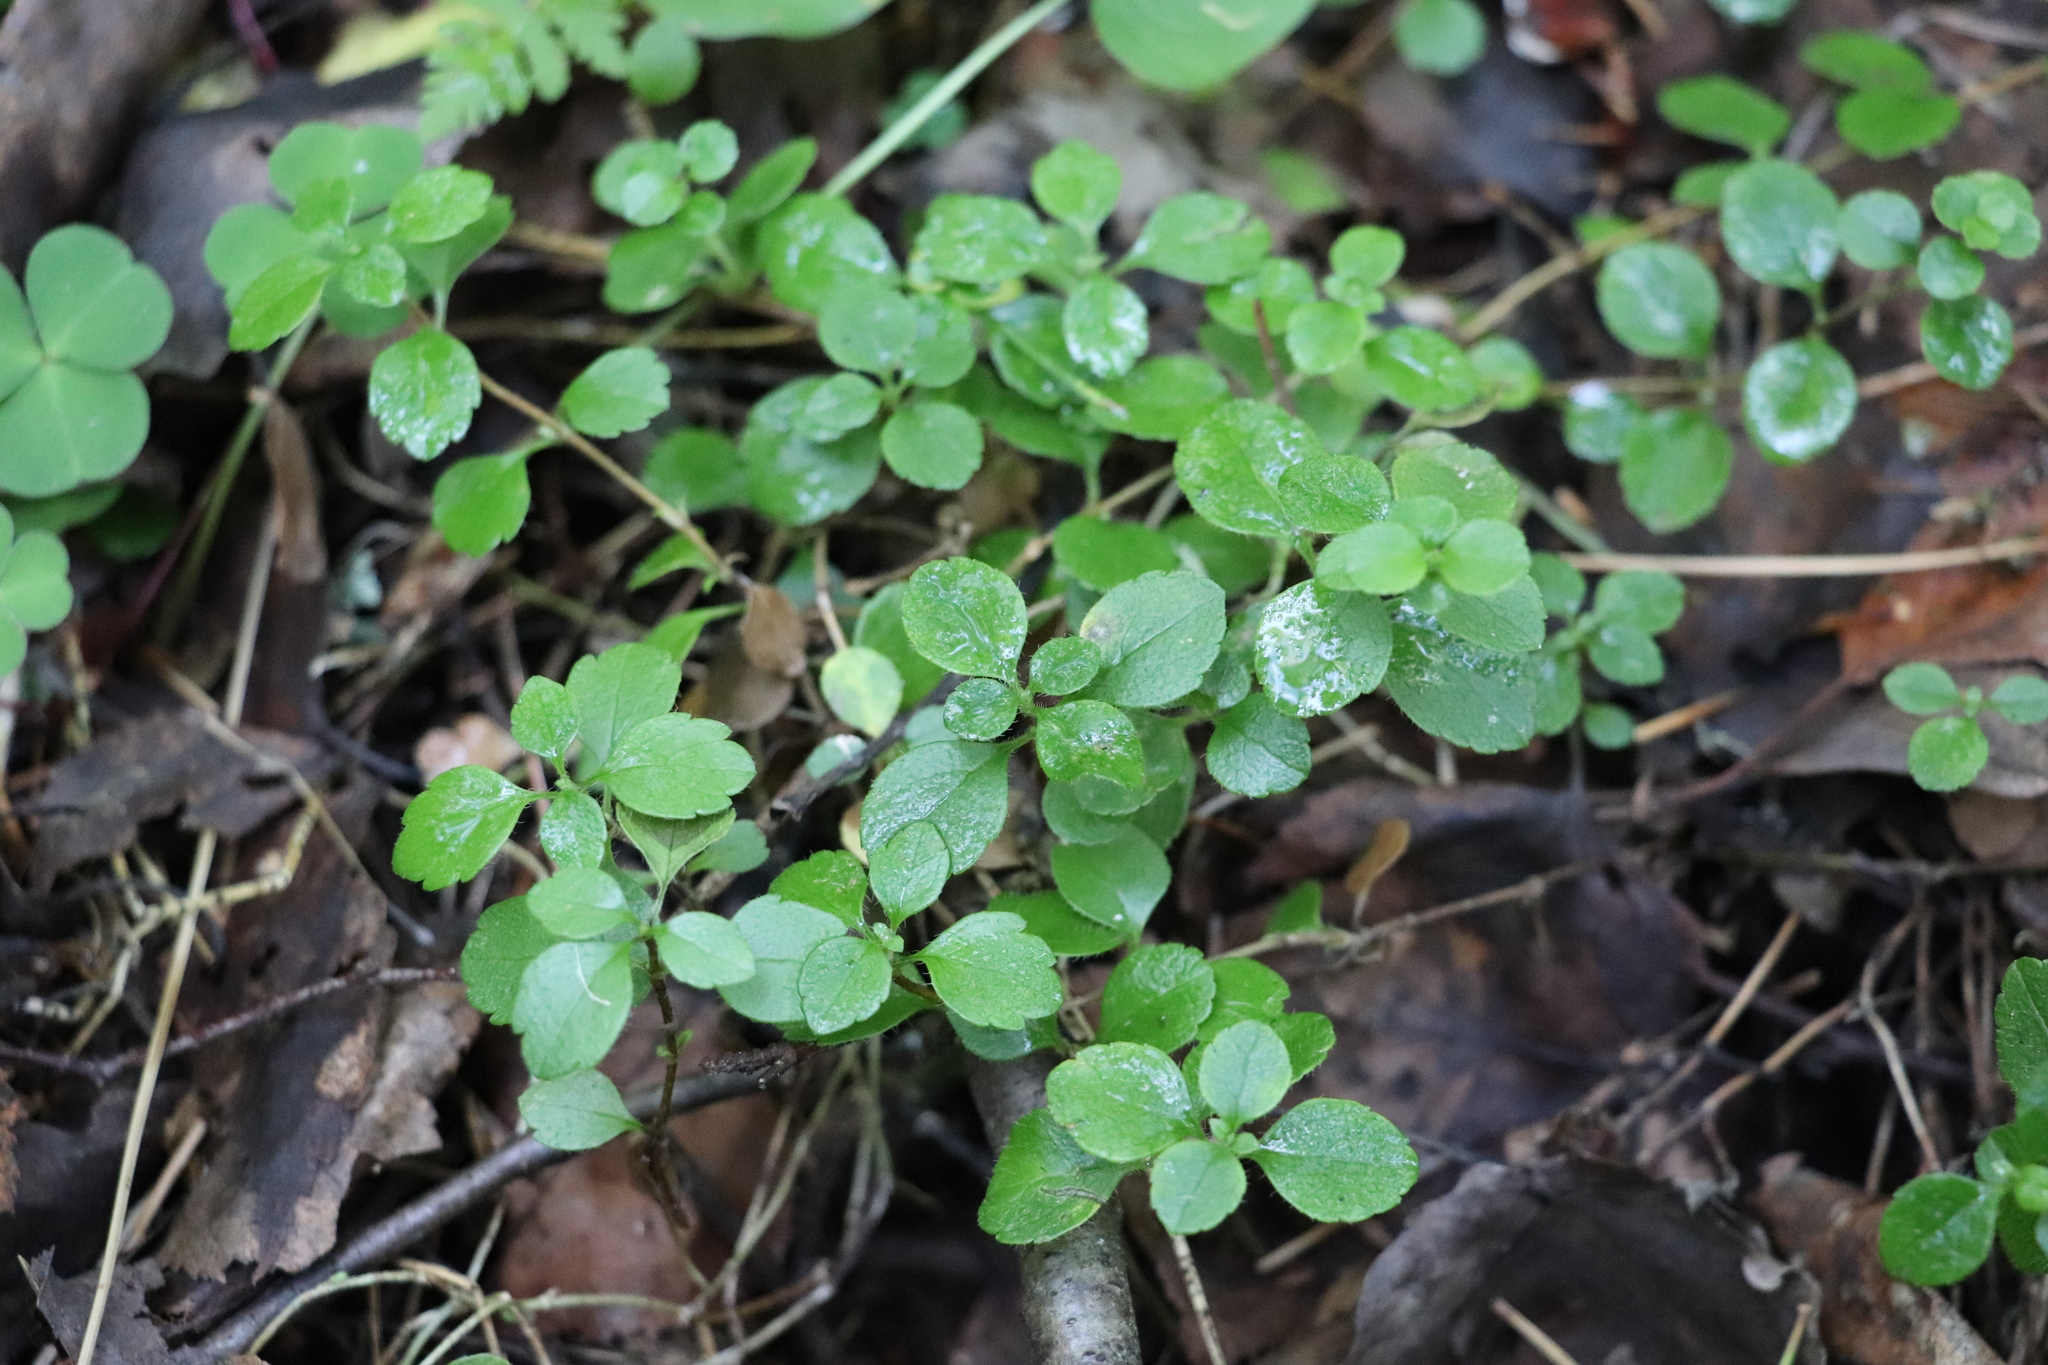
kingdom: Plantae
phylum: Tracheophyta
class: Magnoliopsida
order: Dipsacales
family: Caprifoliaceae
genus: Linnaea
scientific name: Linnaea borealis
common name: Twinflower
